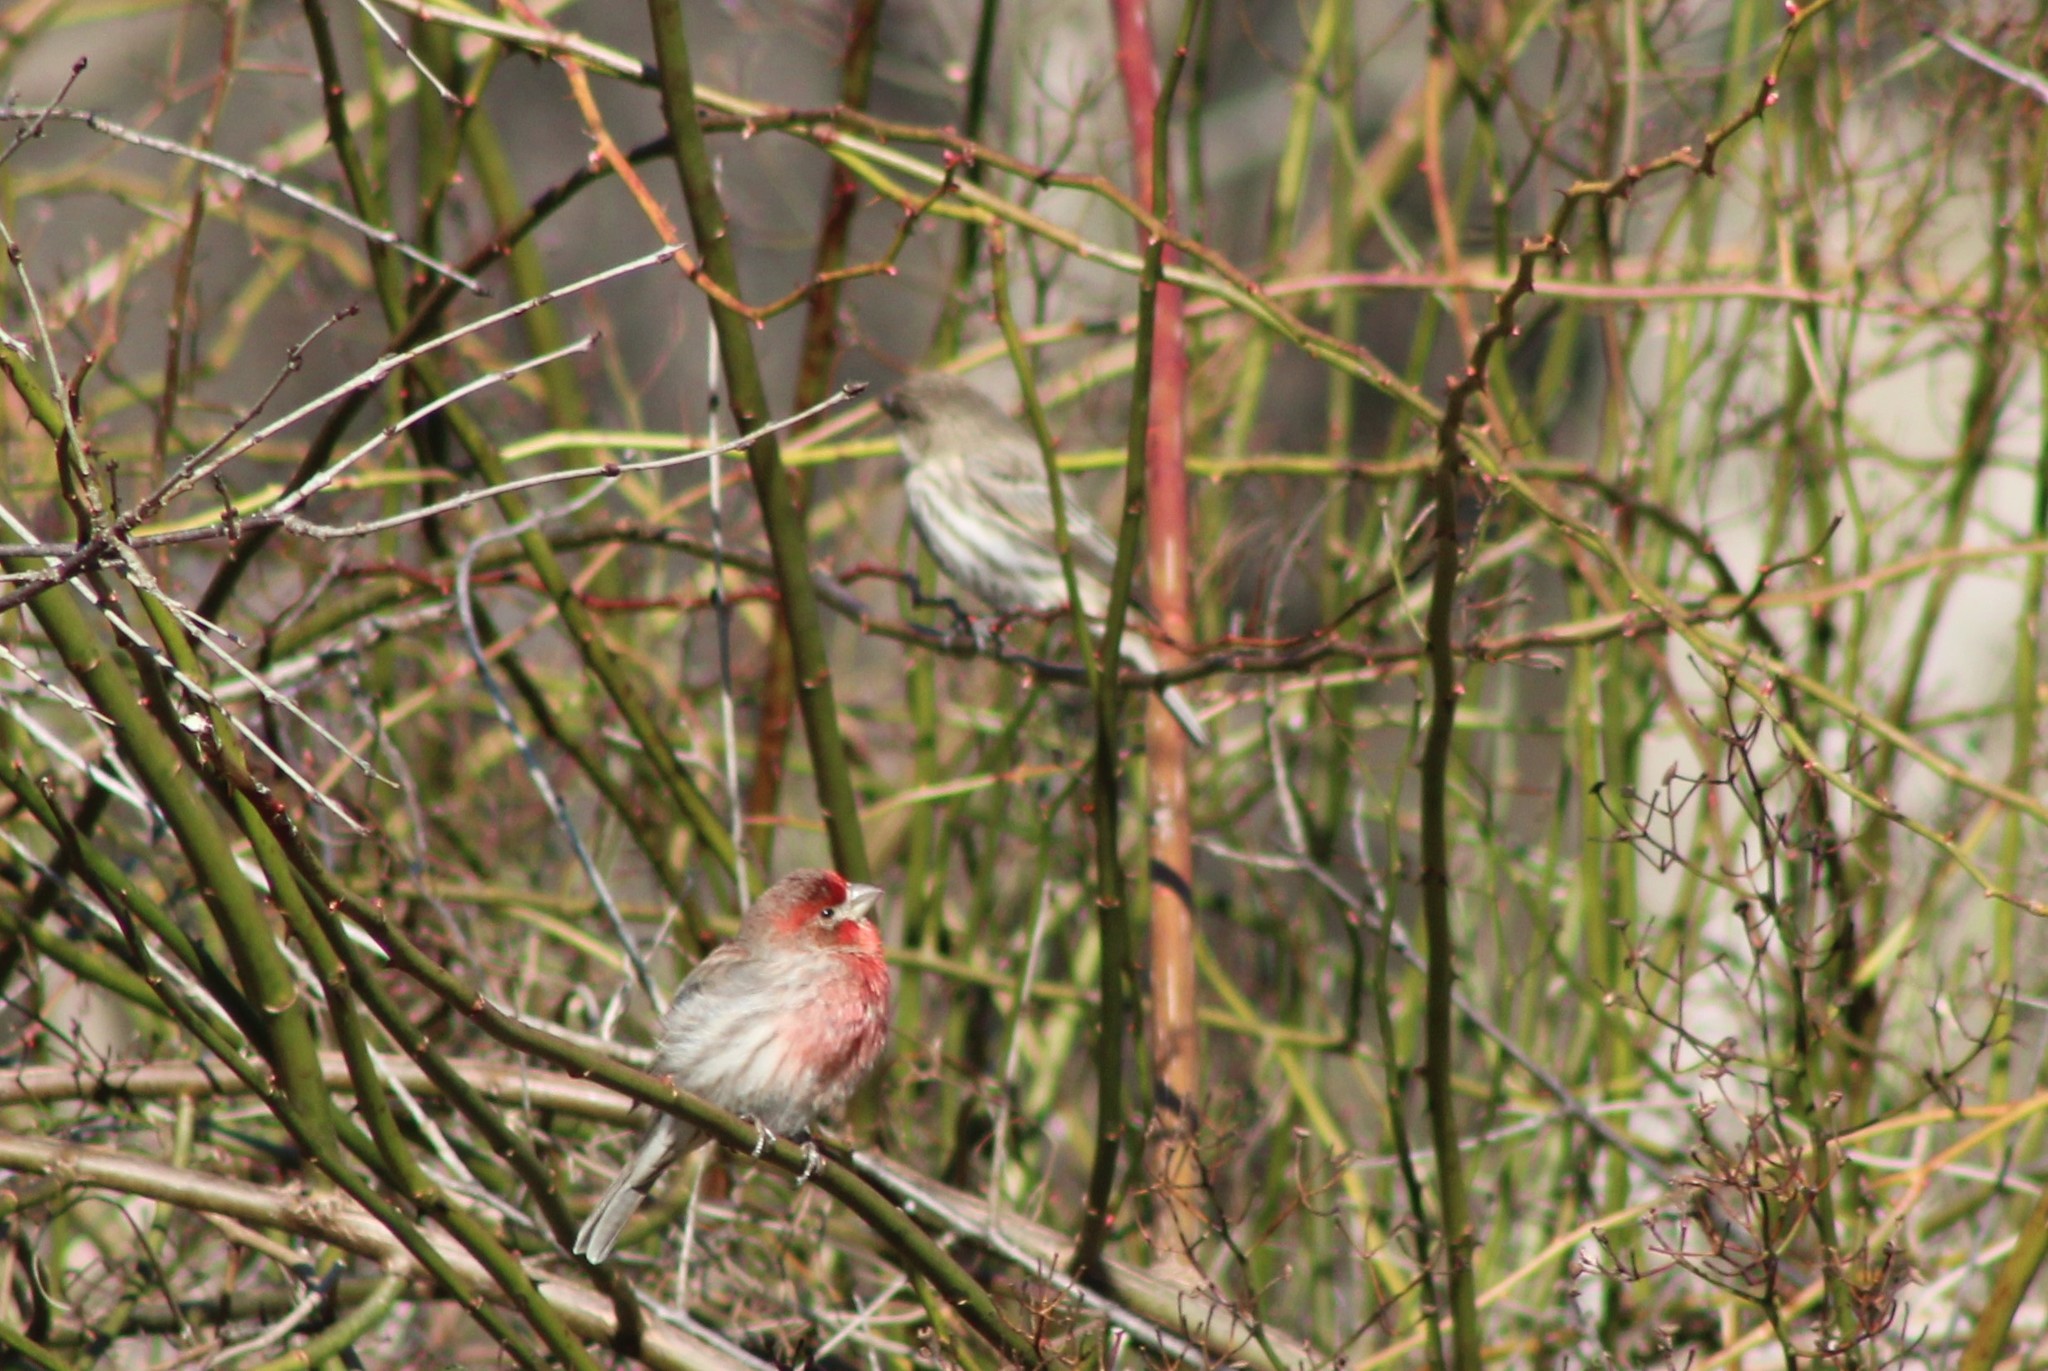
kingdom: Animalia
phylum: Chordata
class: Aves
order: Passeriformes
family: Fringillidae
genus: Haemorhous
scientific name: Haemorhous mexicanus
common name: House finch
